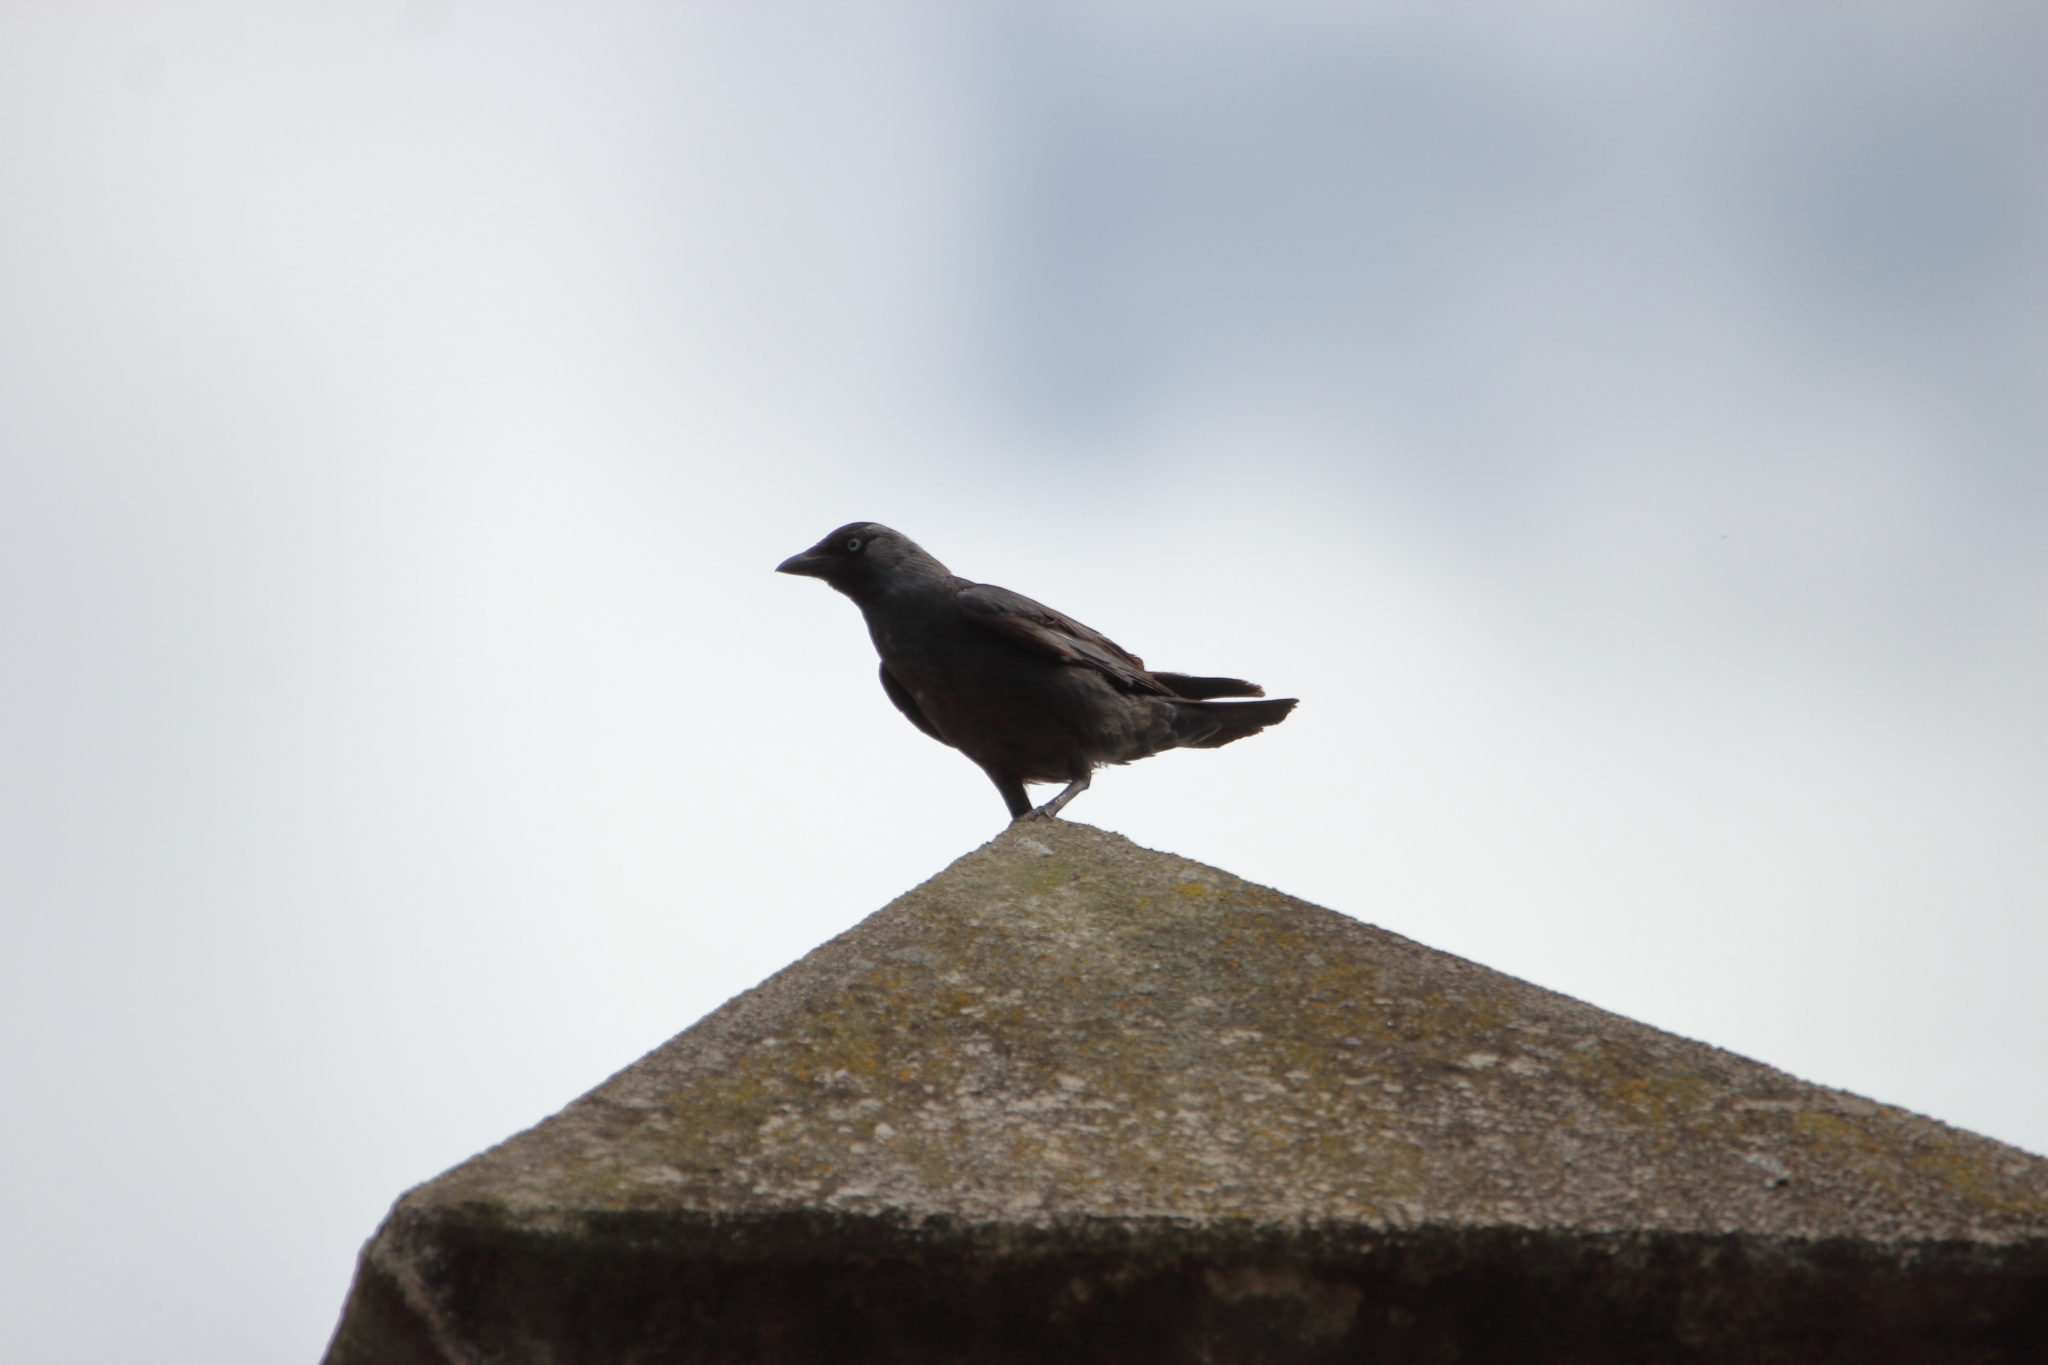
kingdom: Animalia
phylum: Chordata
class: Aves
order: Passeriformes
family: Corvidae
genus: Coloeus
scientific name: Coloeus monedula
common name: Western jackdaw
